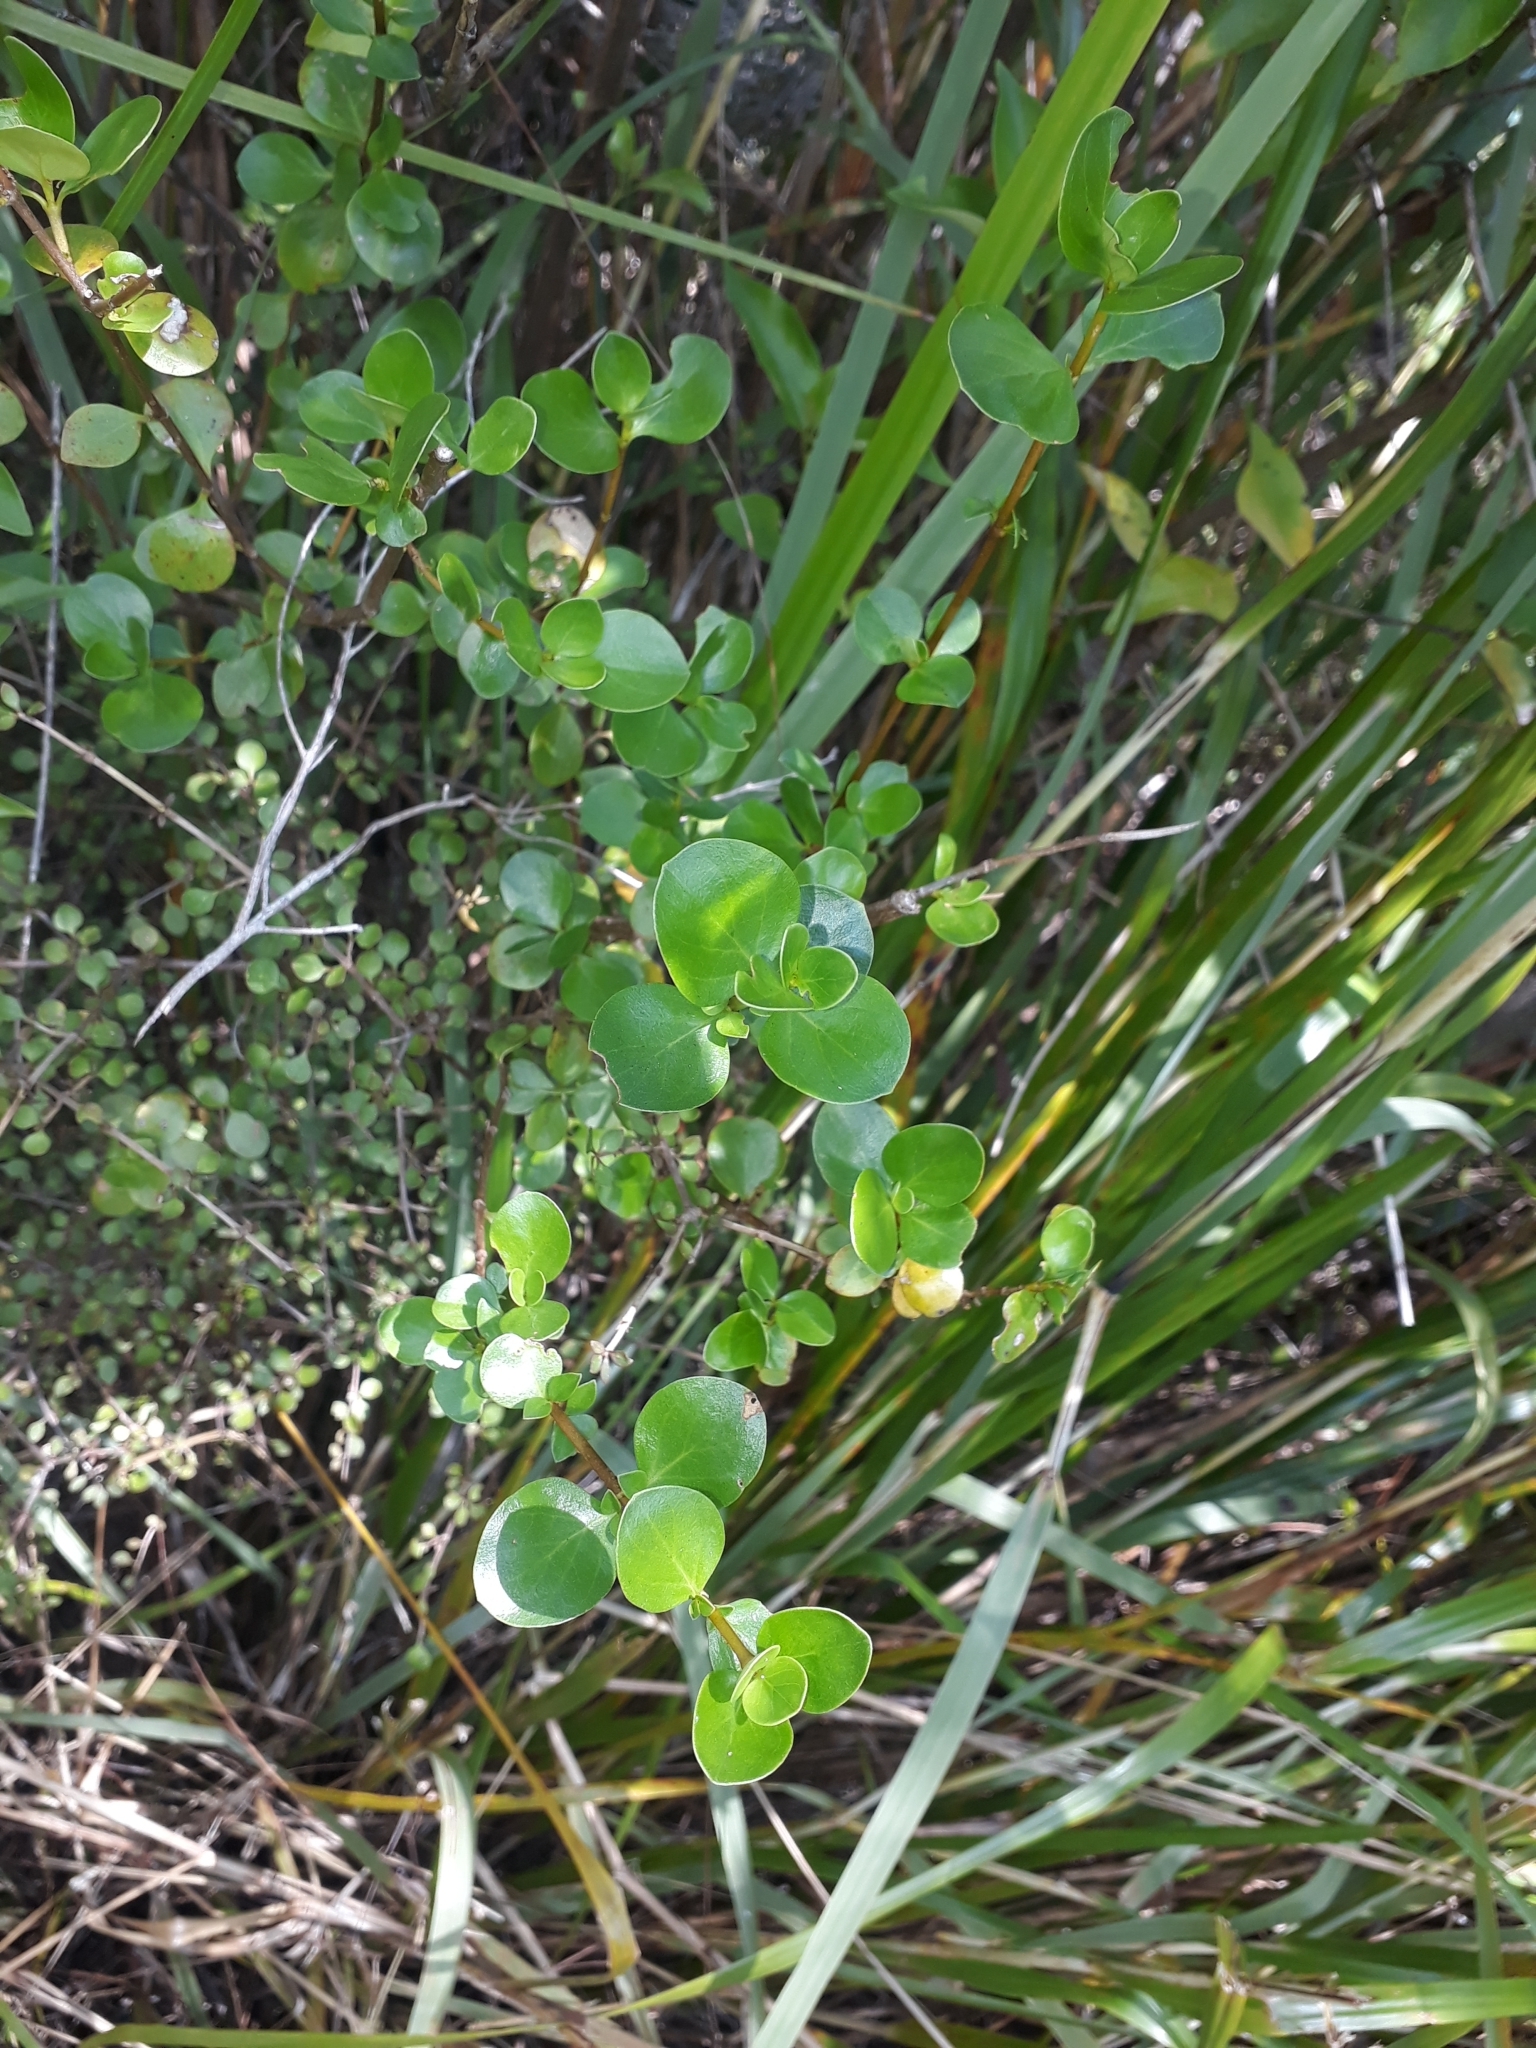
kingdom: Plantae
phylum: Tracheophyta
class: Magnoliopsida
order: Gentianales
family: Rubiaceae
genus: Coprosma
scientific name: Coprosma neglecta
